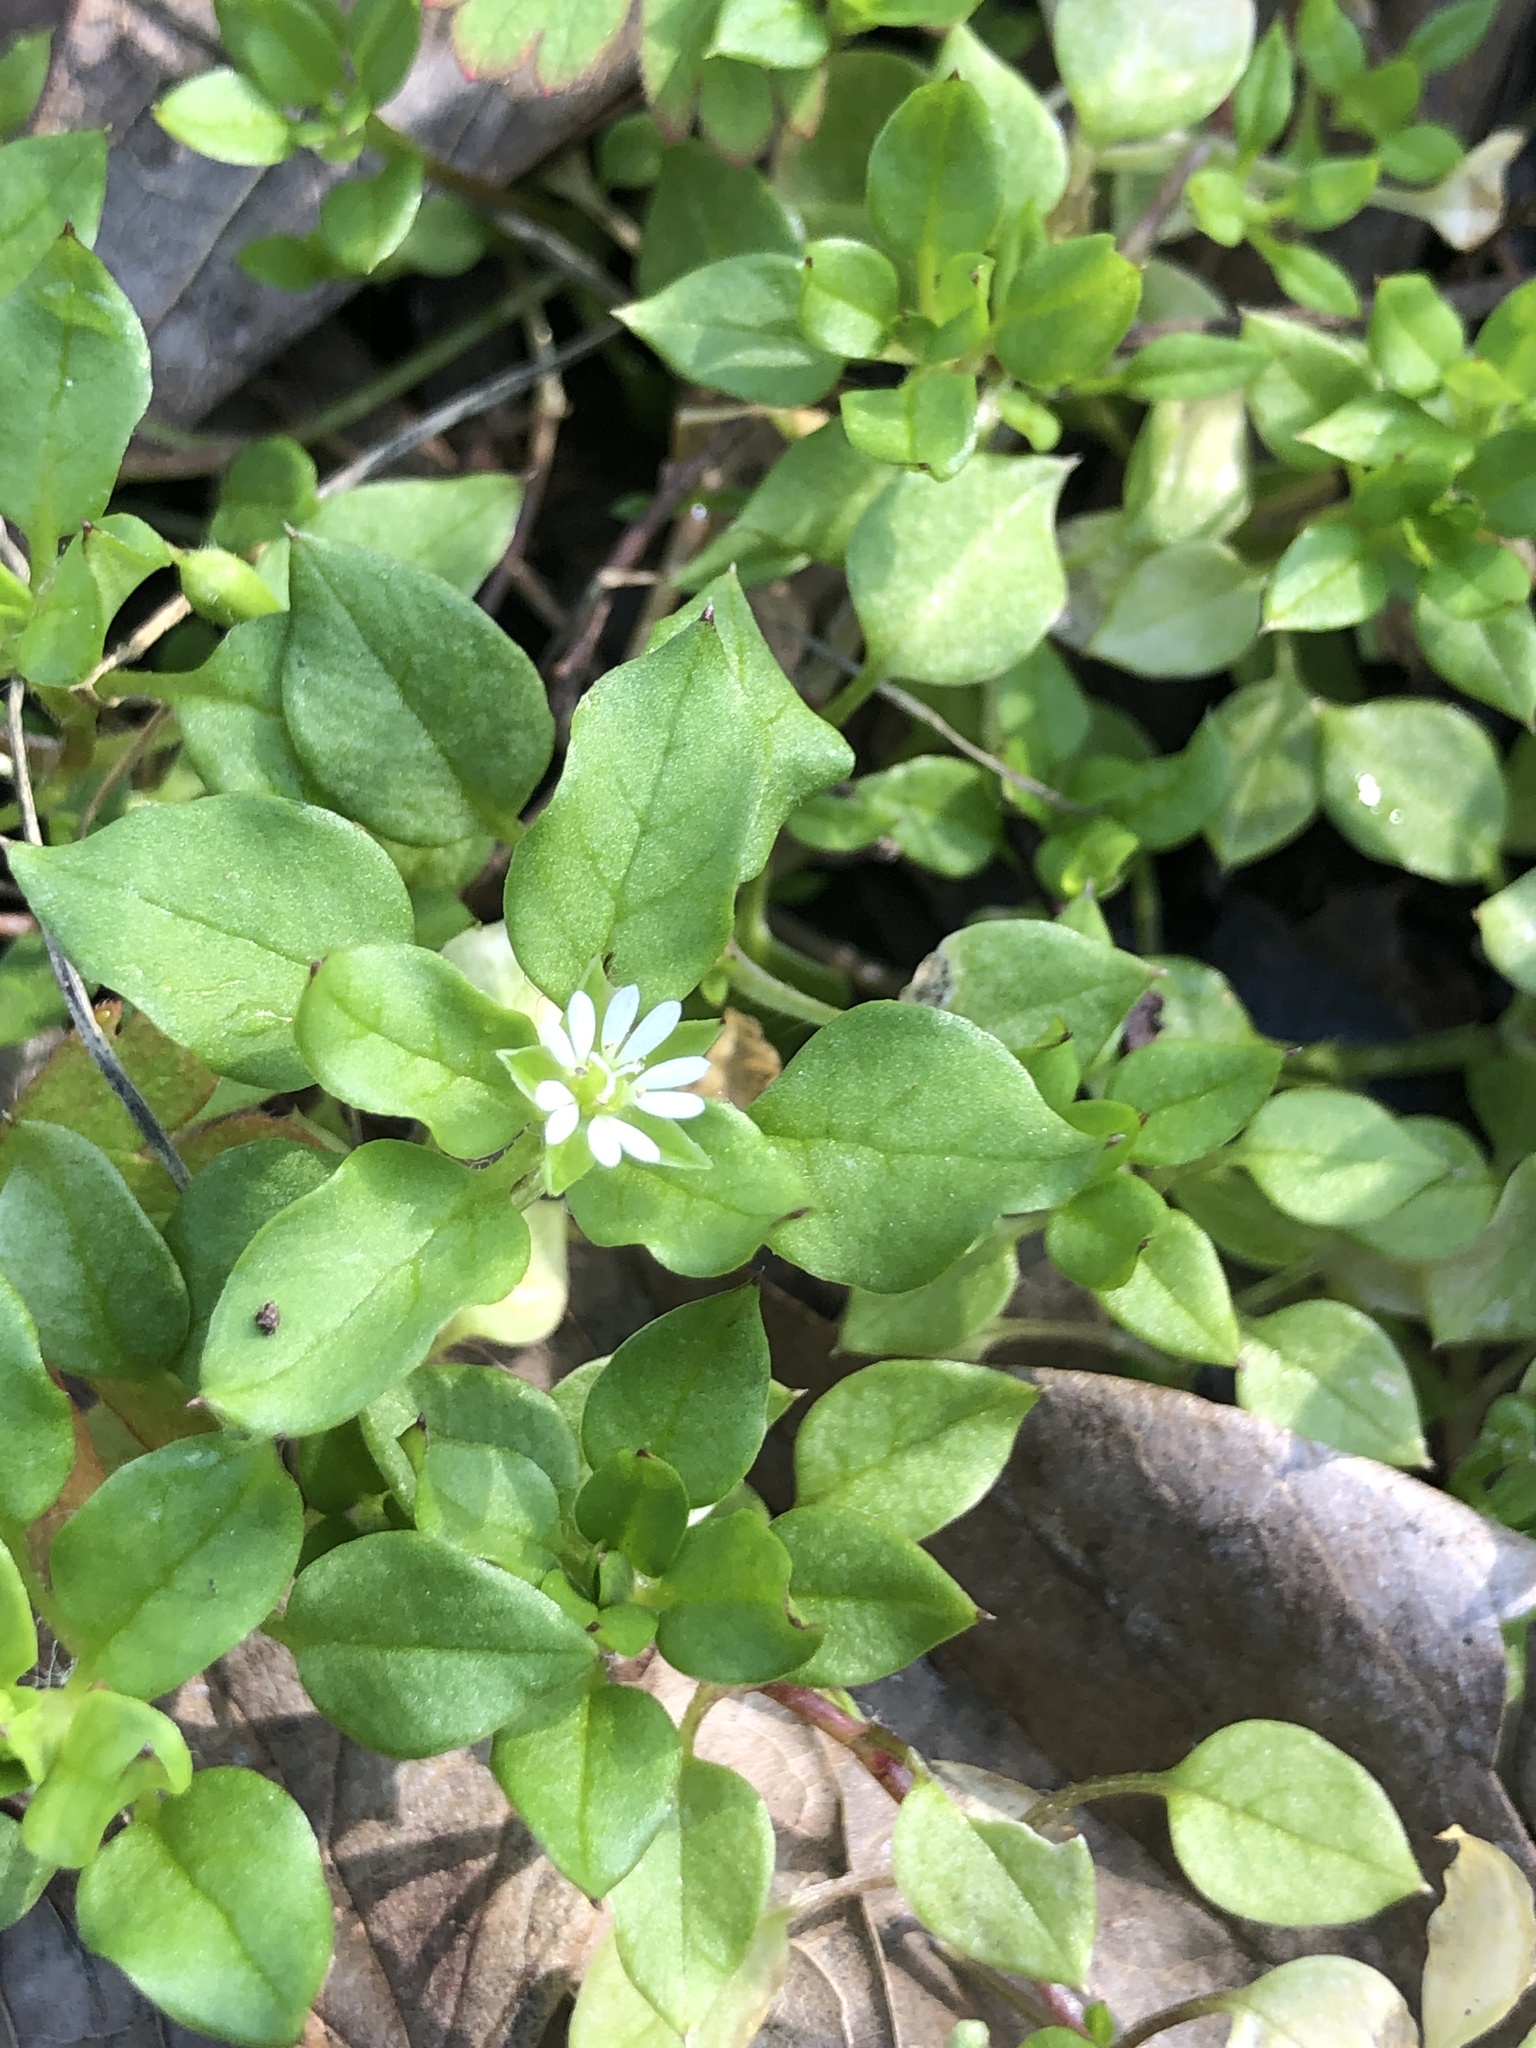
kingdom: Plantae
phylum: Tracheophyta
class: Magnoliopsida
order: Caryophyllales
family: Caryophyllaceae
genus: Stellaria
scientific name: Stellaria media
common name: Common chickweed
